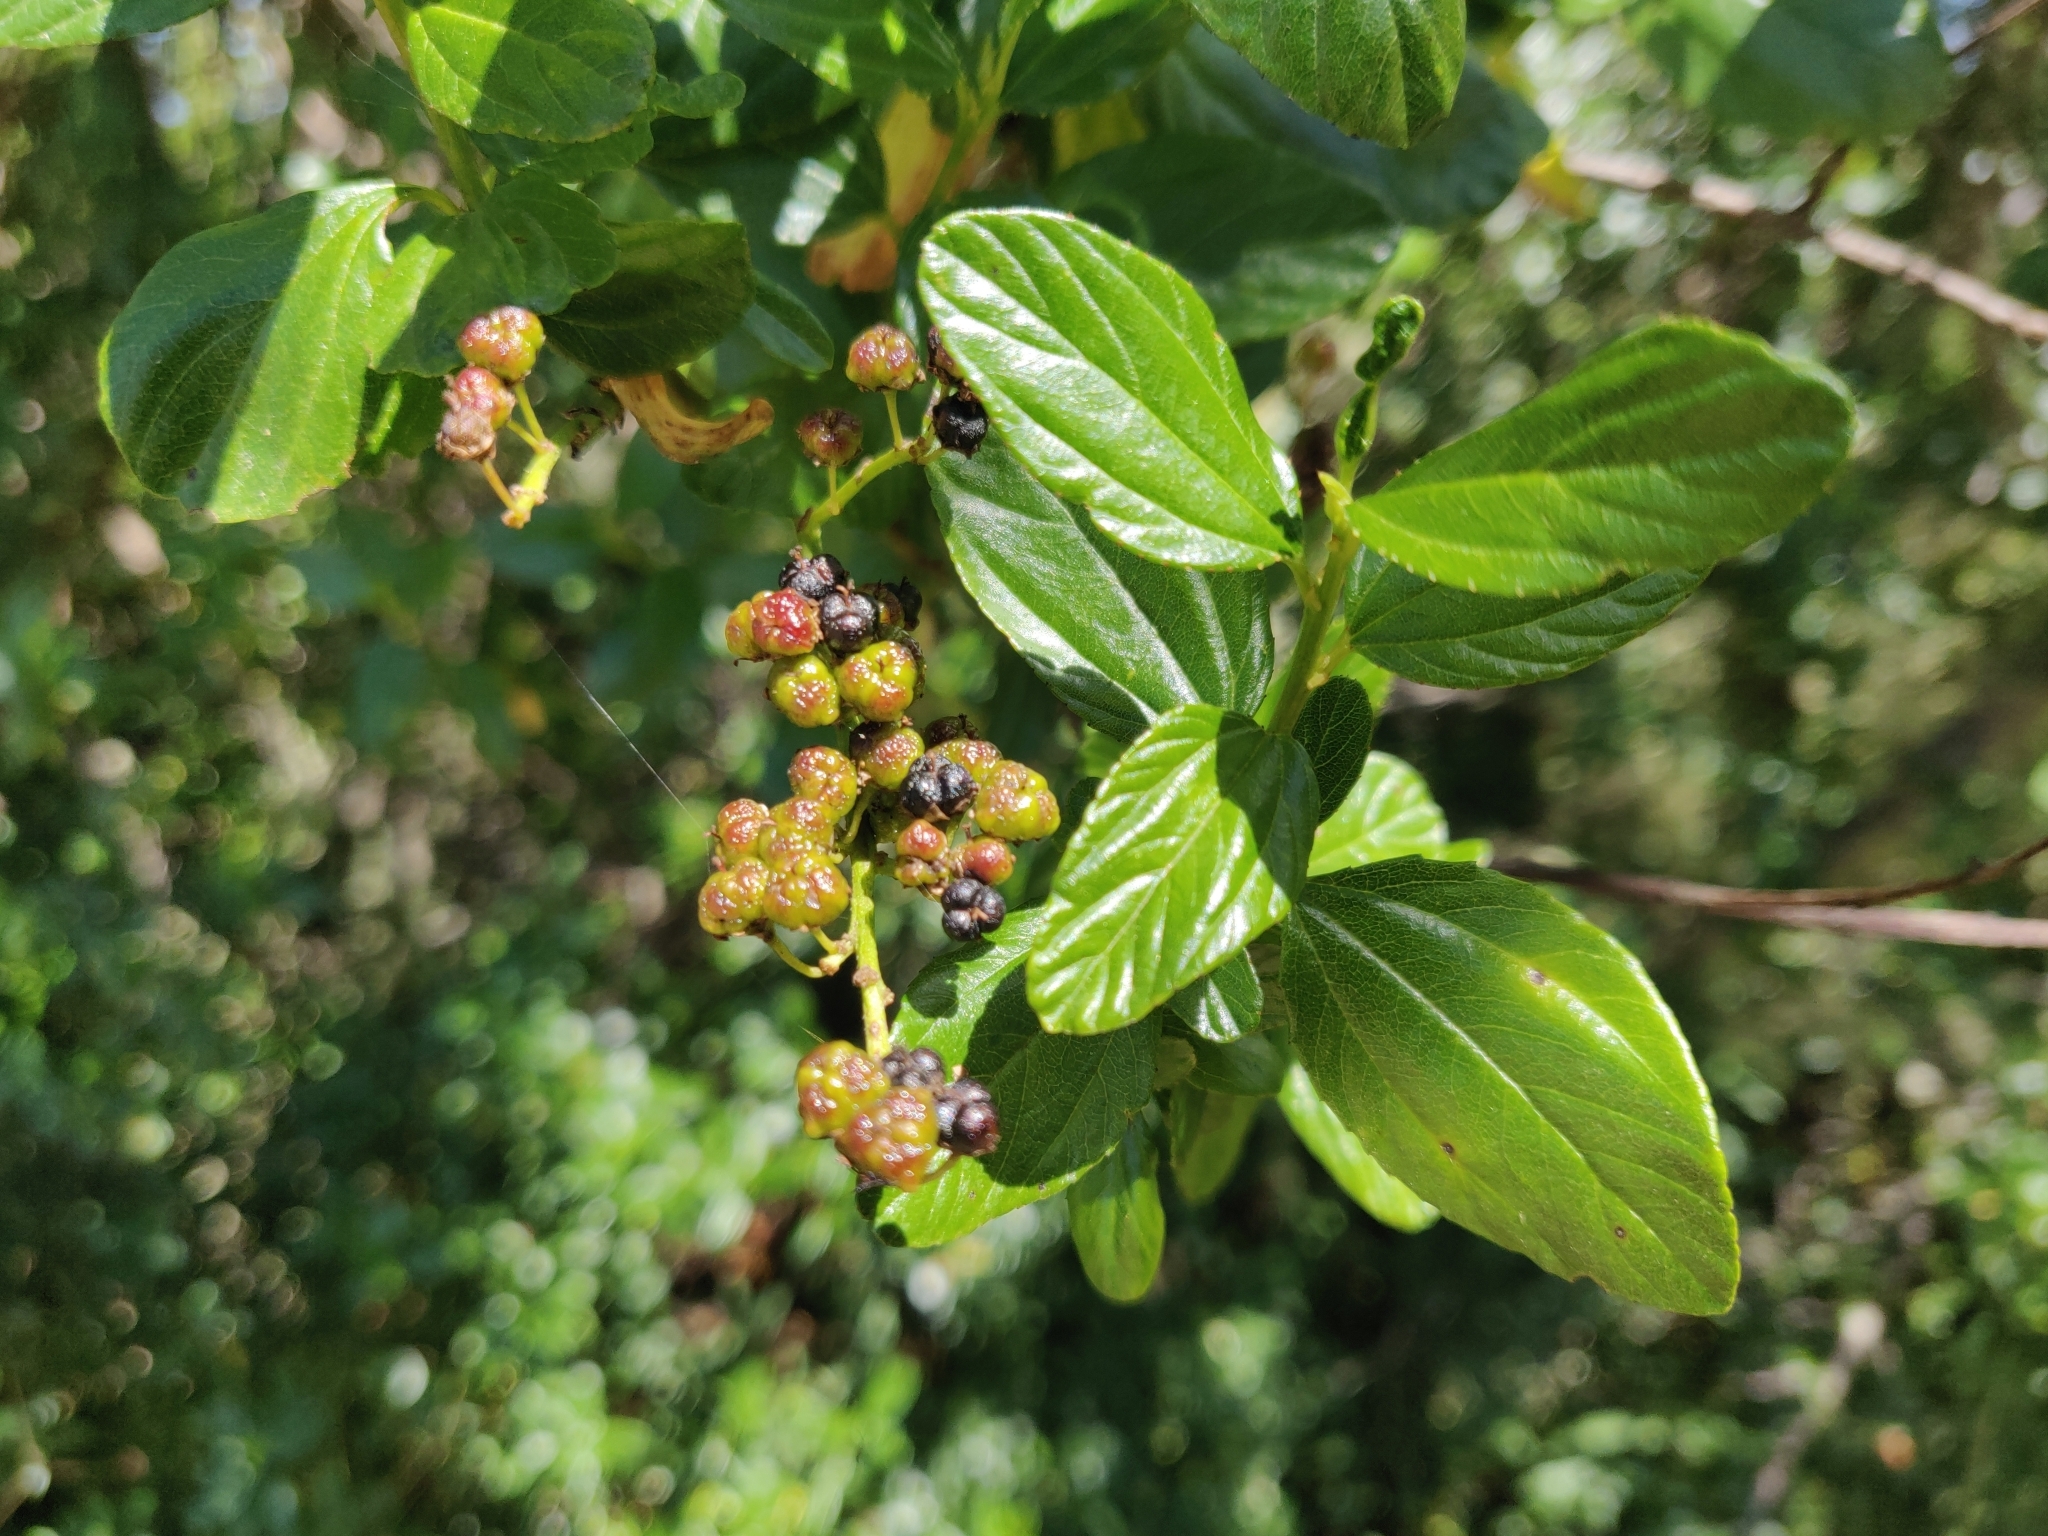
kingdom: Plantae
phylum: Tracheophyta
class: Magnoliopsida
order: Rosales
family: Rhamnaceae
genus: Ceanothus
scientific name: Ceanothus thyrsiflorus
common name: California-lilac
